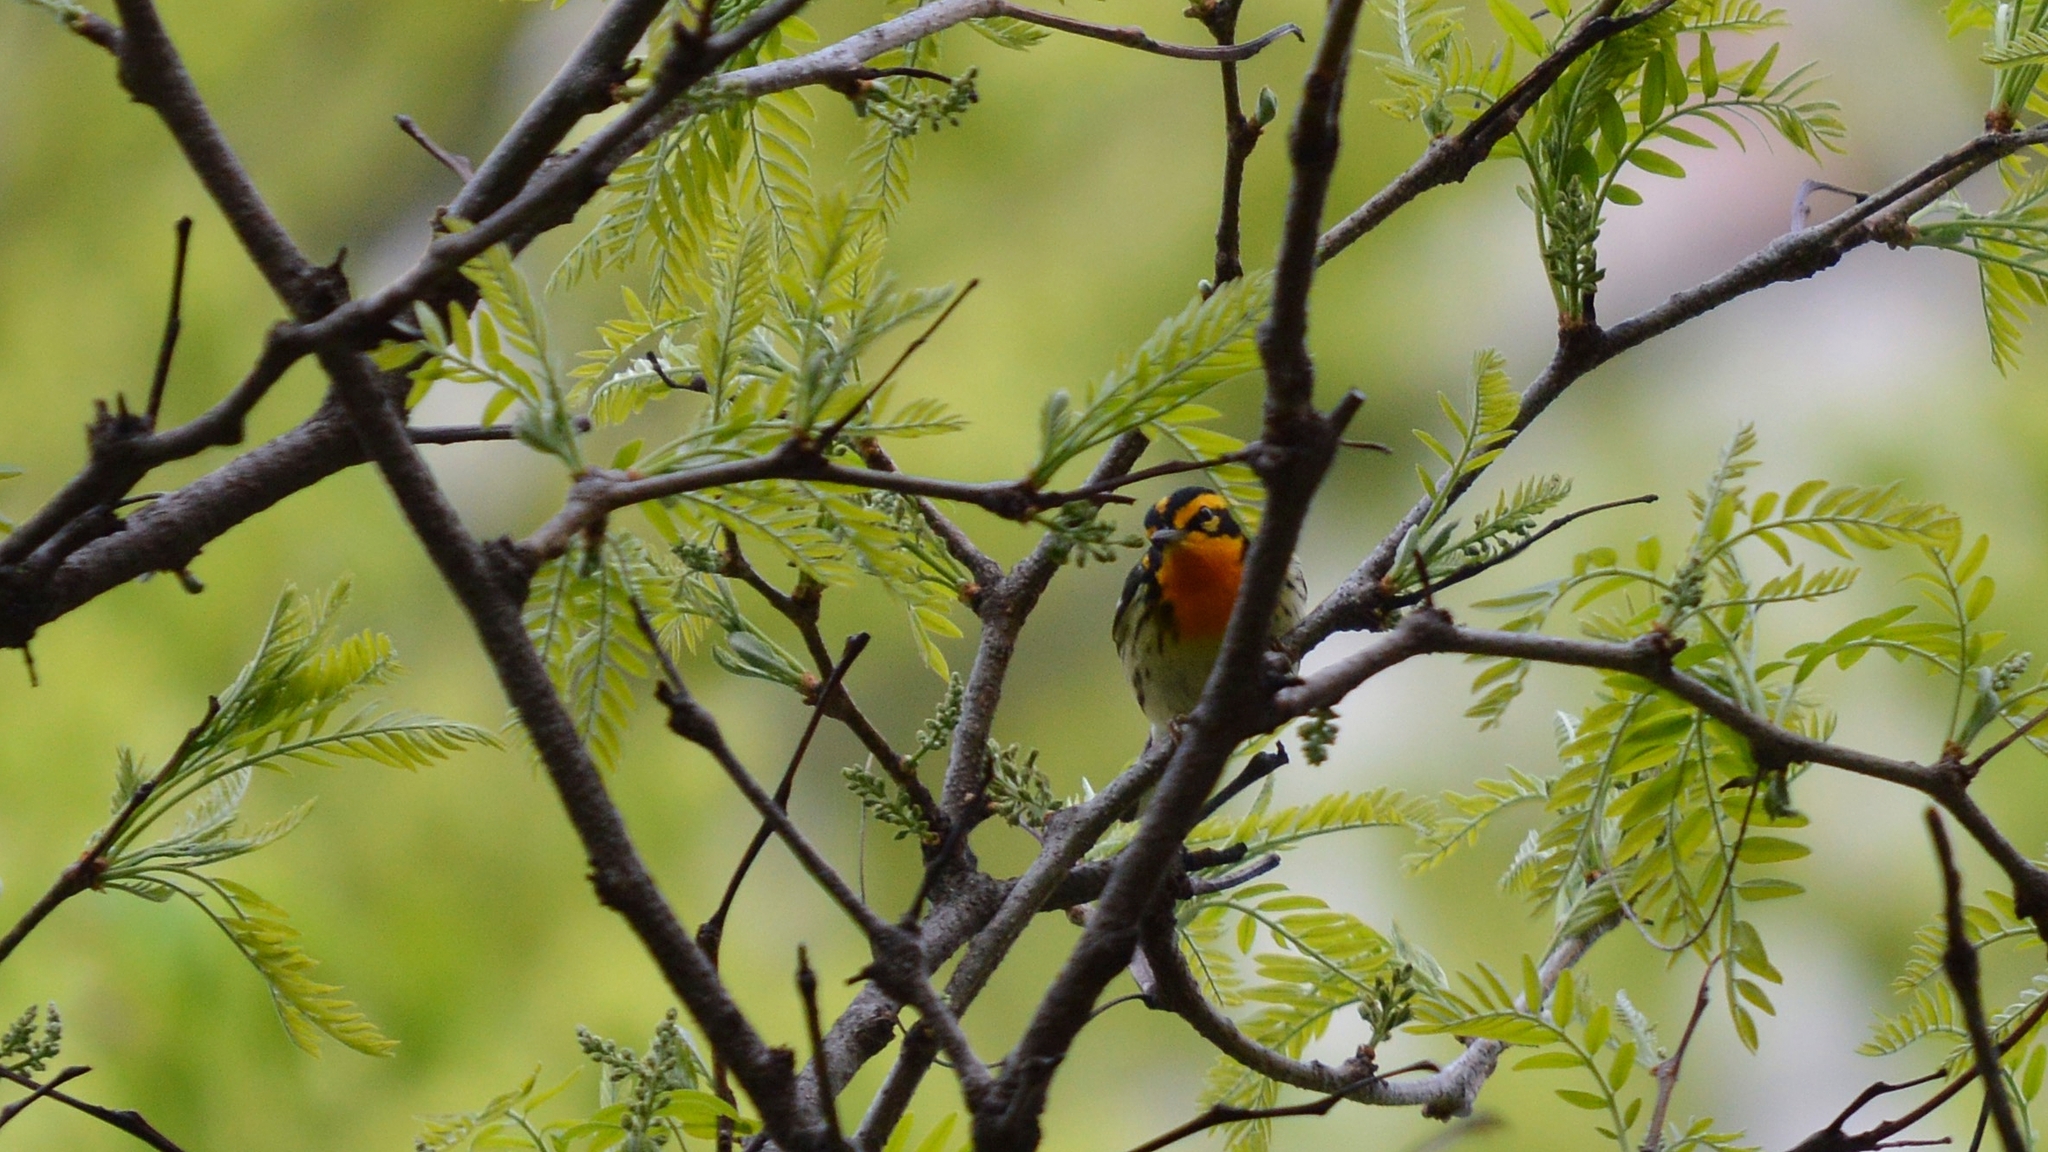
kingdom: Animalia
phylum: Chordata
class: Aves
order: Passeriformes
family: Parulidae
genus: Setophaga
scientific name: Setophaga fusca
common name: Blackburnian warbler
